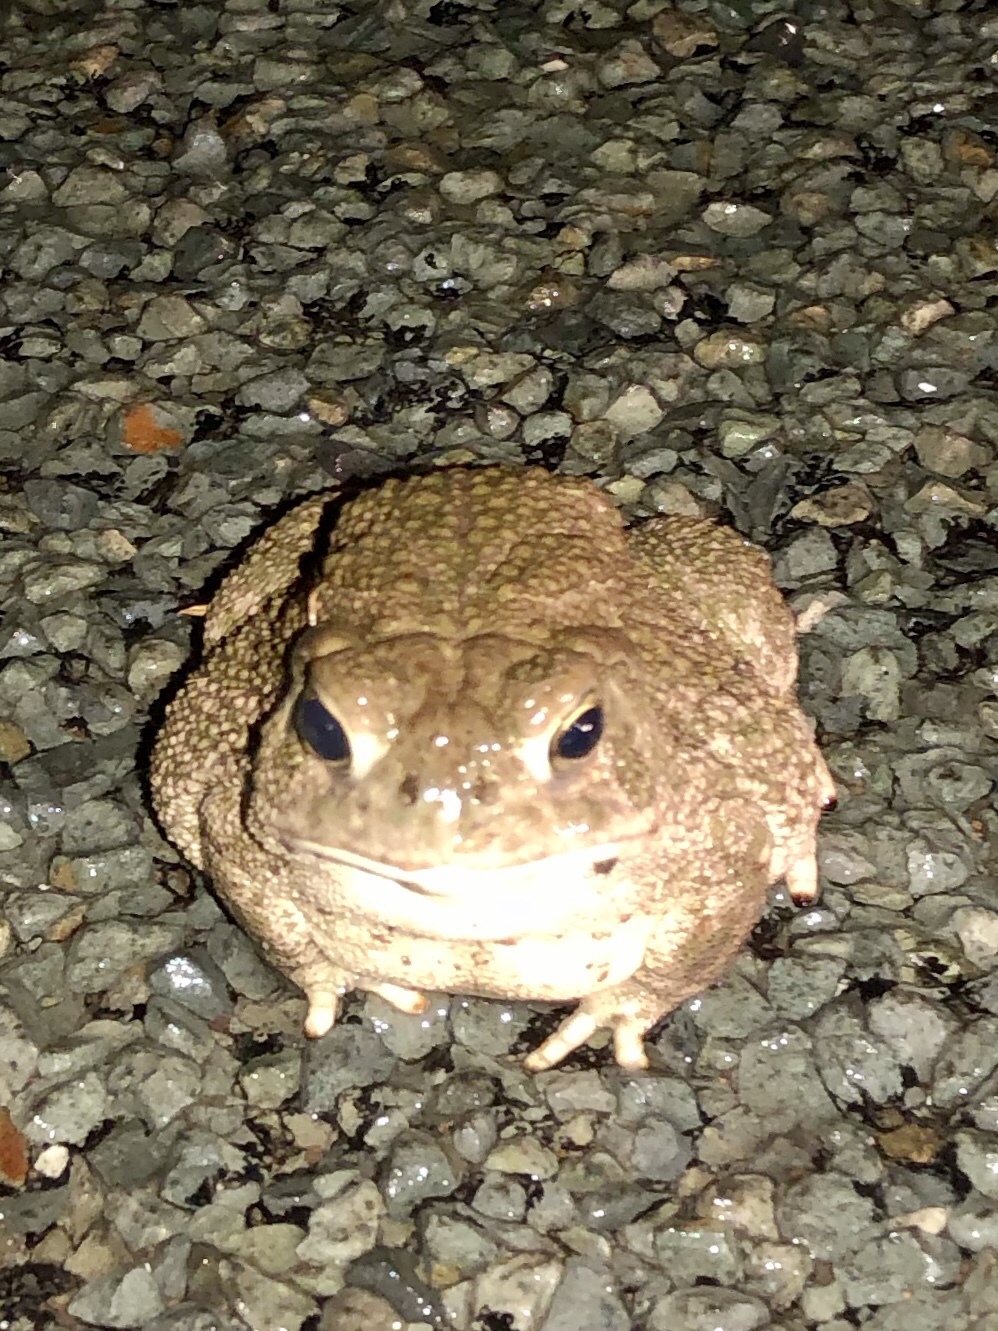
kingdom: Animalia
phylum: Chordata
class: Amphibia
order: Anura
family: Bufonidae
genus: Anaxyrus
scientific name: Anaxyrus cognatus
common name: Great plains toad
